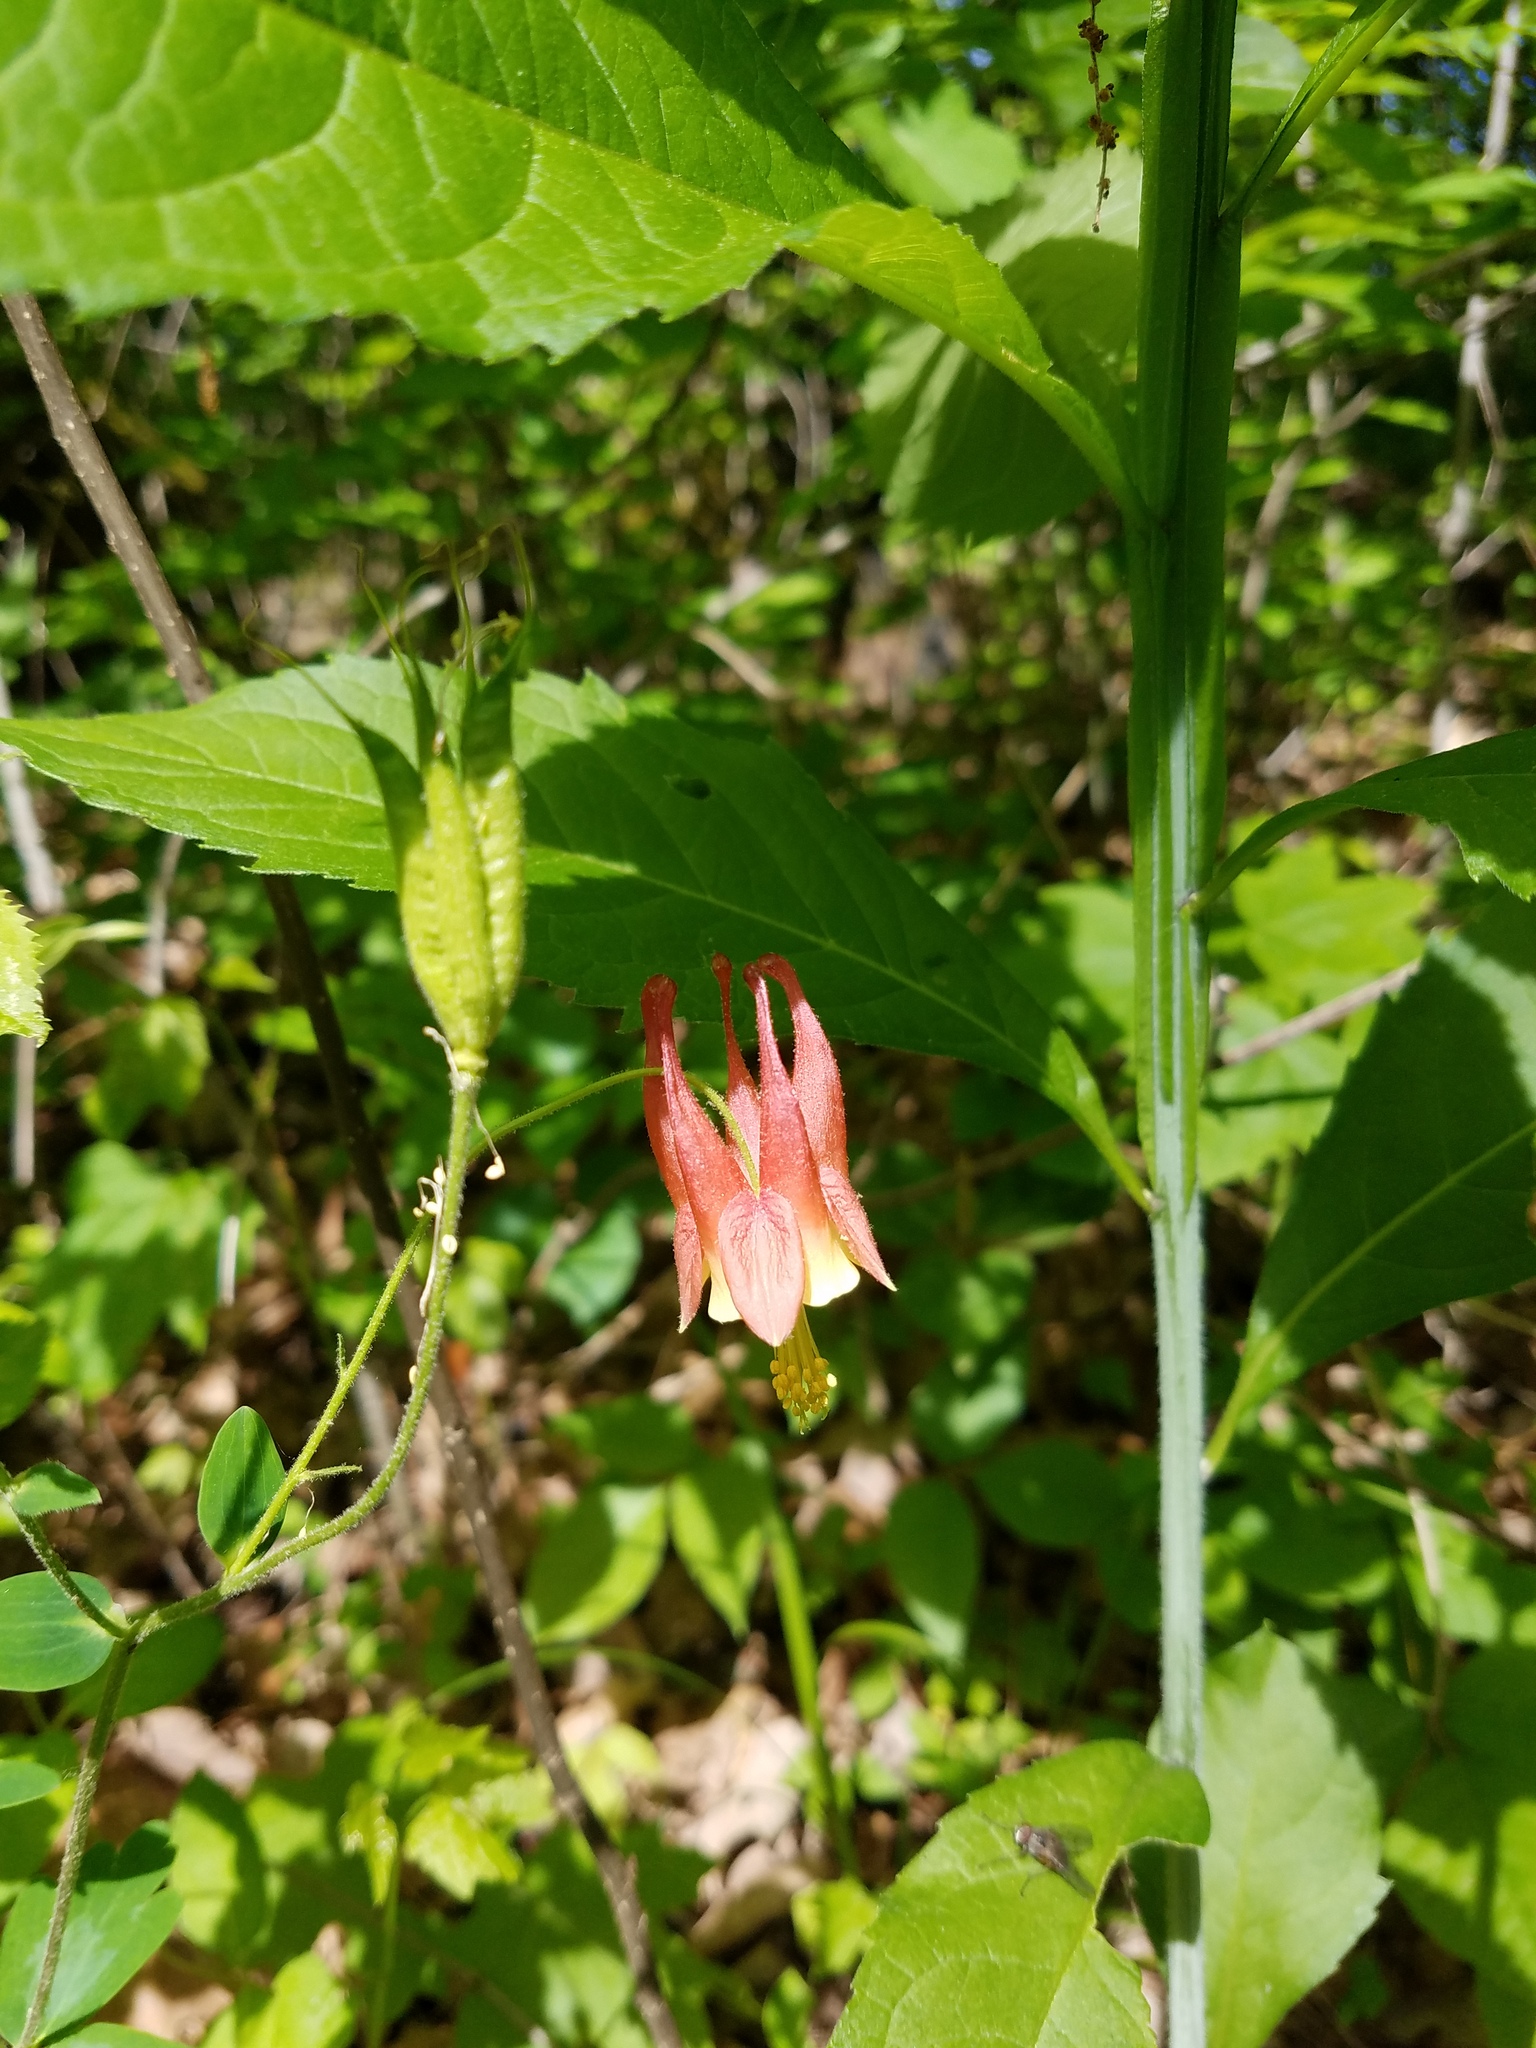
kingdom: Plantae
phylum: Tracheophyta
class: Magnoliopsida
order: Ranunculales
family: Ranunculaceae
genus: Aquilegia
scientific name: Aquilegia canadensis
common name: American columbine
